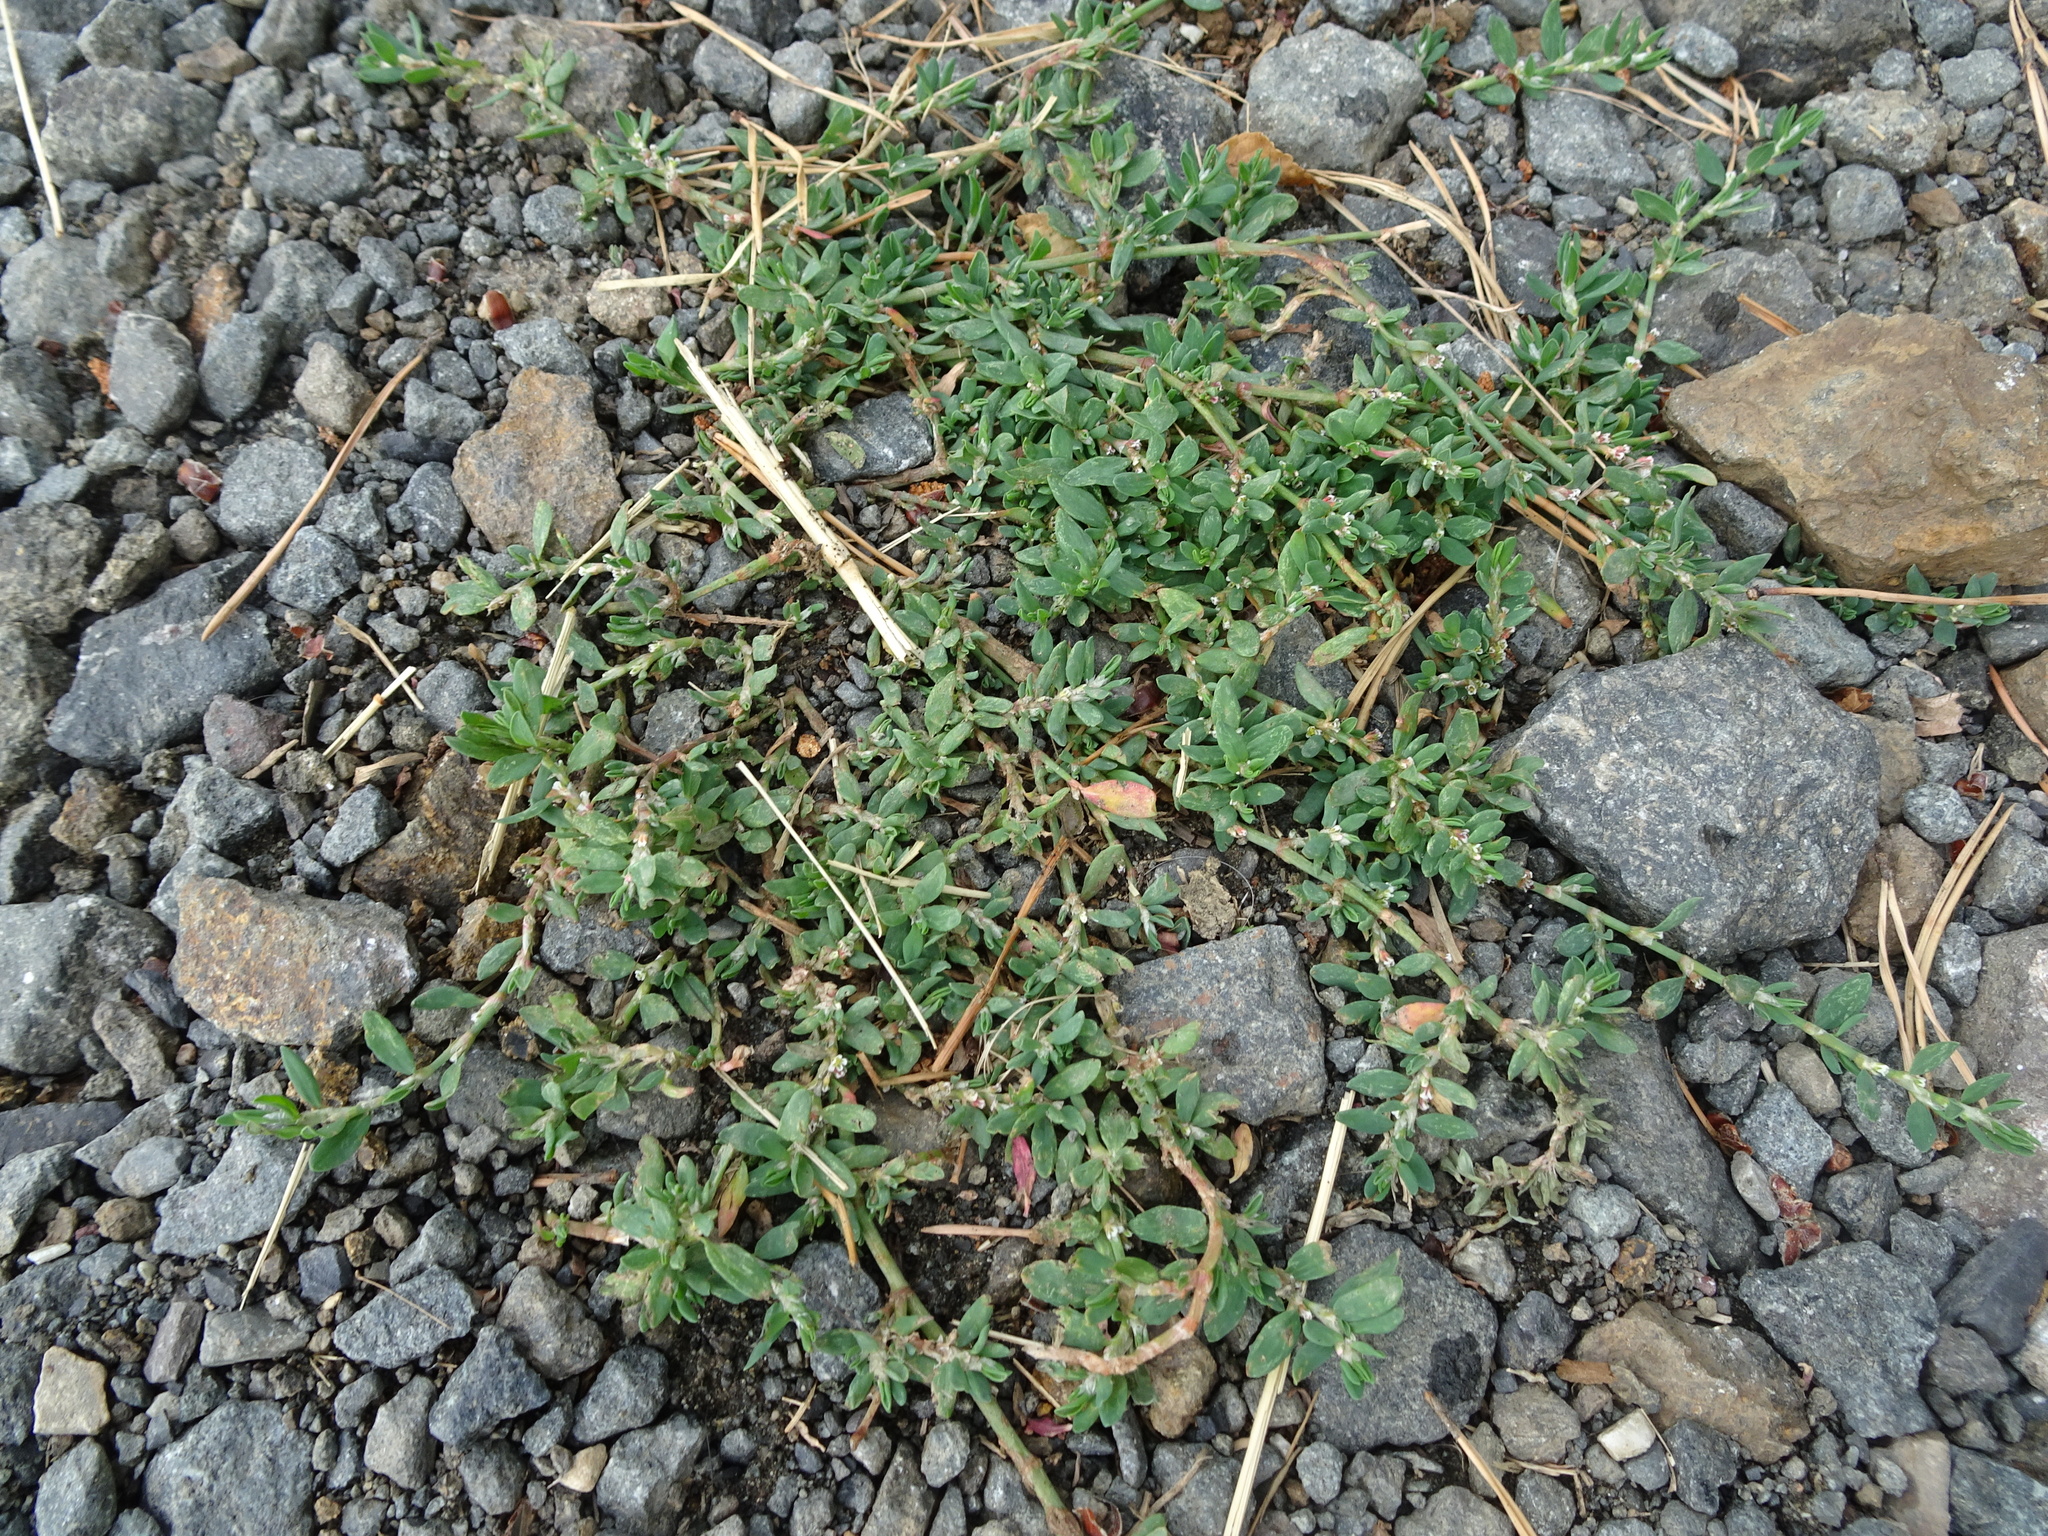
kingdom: Plantae
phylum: Tracheophyta
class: Magnoliopsida
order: Caryophyllales
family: Polygonaceae
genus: Polygonum
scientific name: Polygonum arenastrum
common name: Equal-leaved knotgrass
